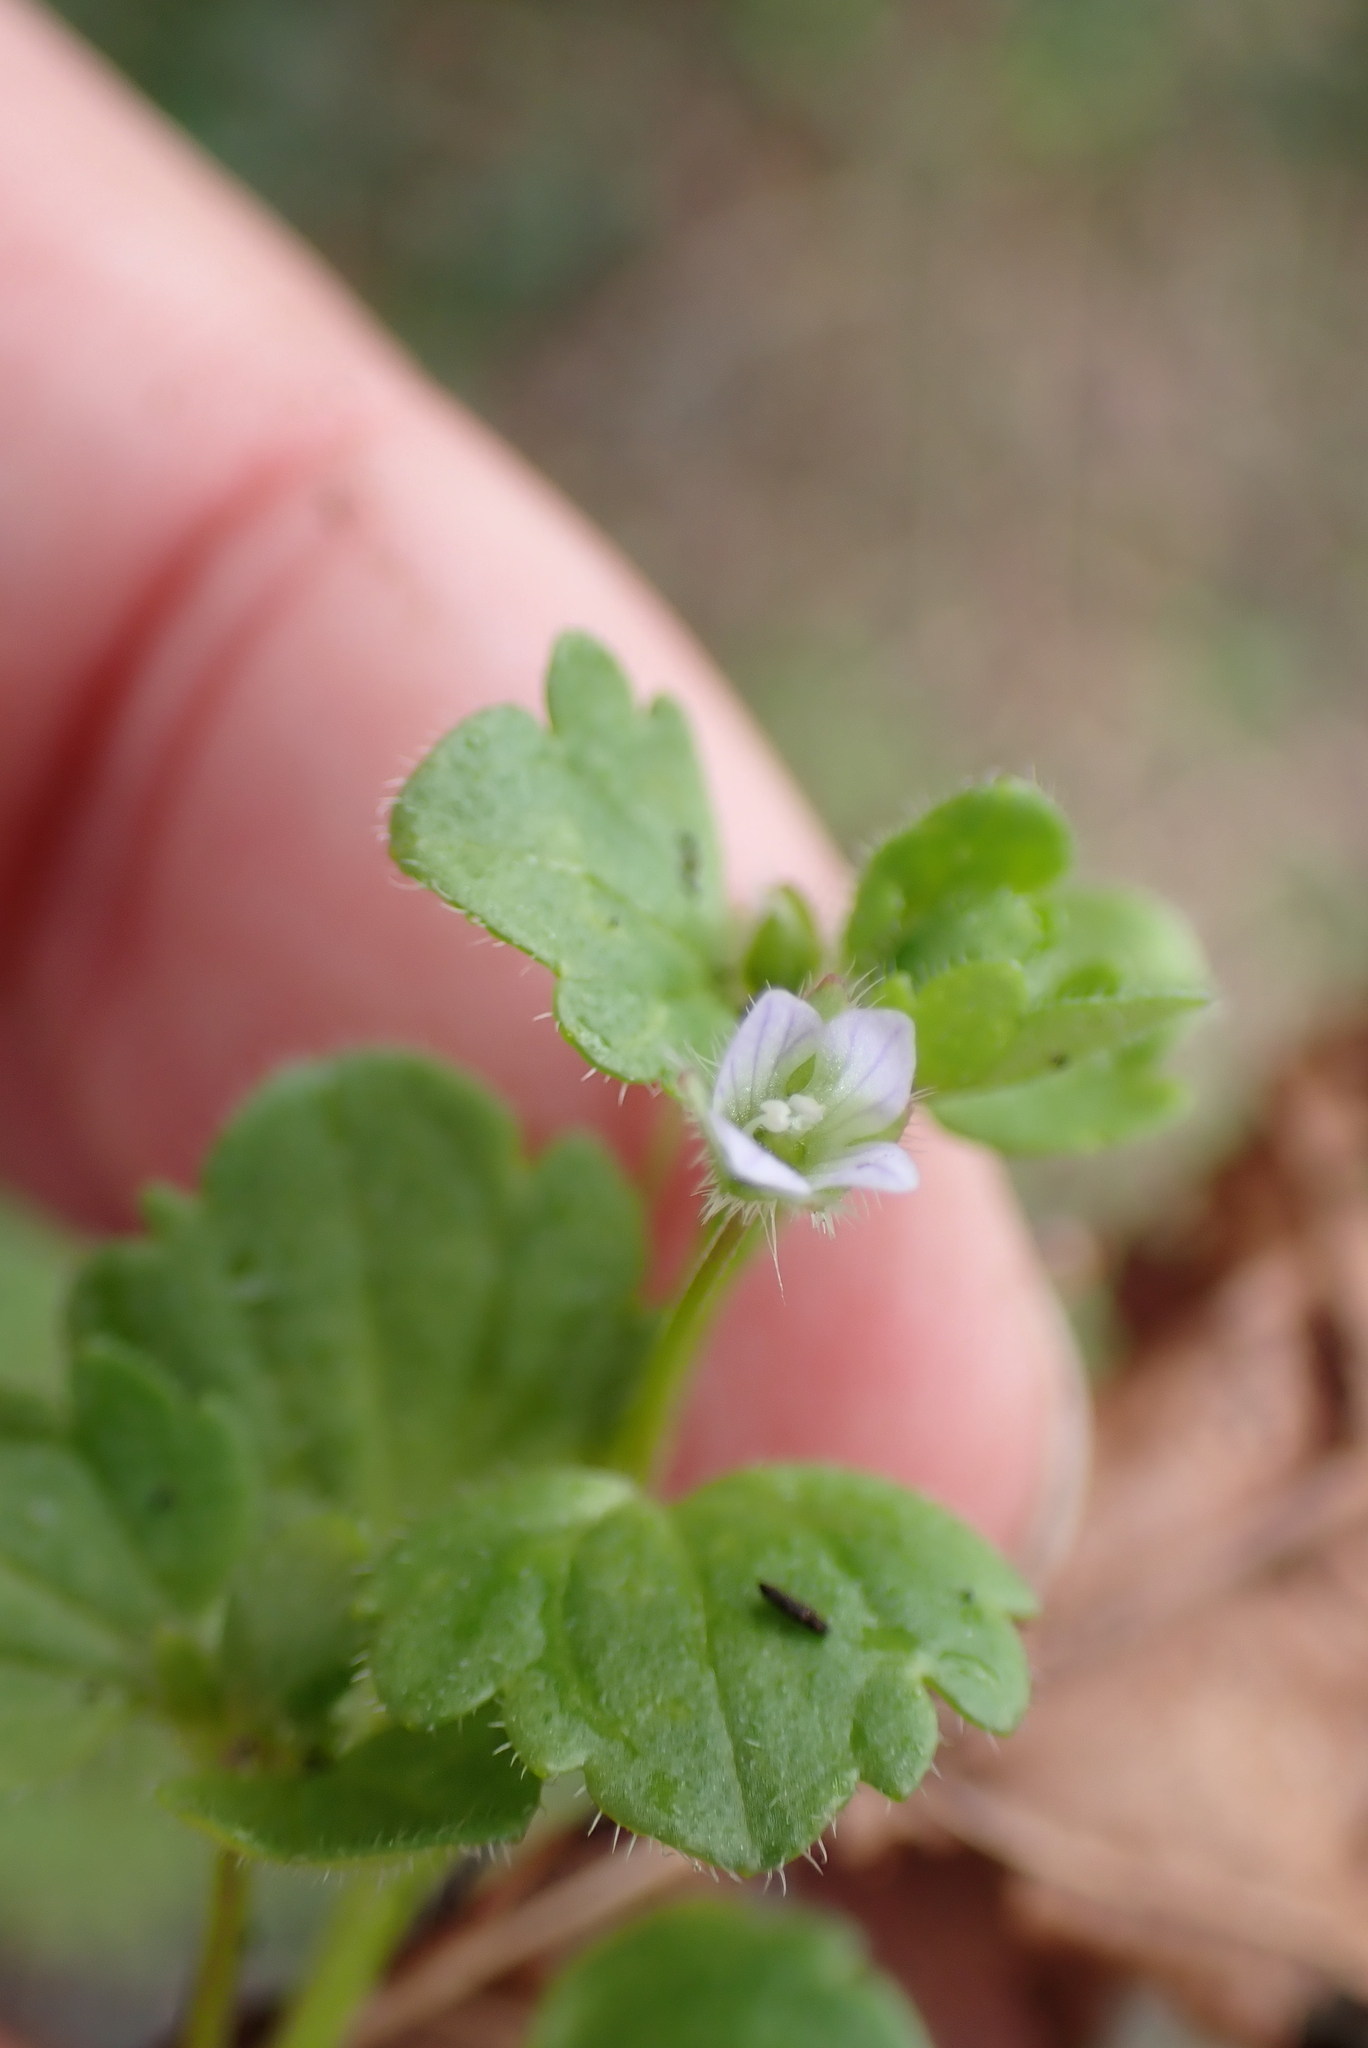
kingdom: Plantae
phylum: Tracheophyta
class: Magnoliopsida
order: Lamiales
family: Plantaginaceae
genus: Veronica
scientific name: Veronica sublobata
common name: False ivy-leaved speedwell
